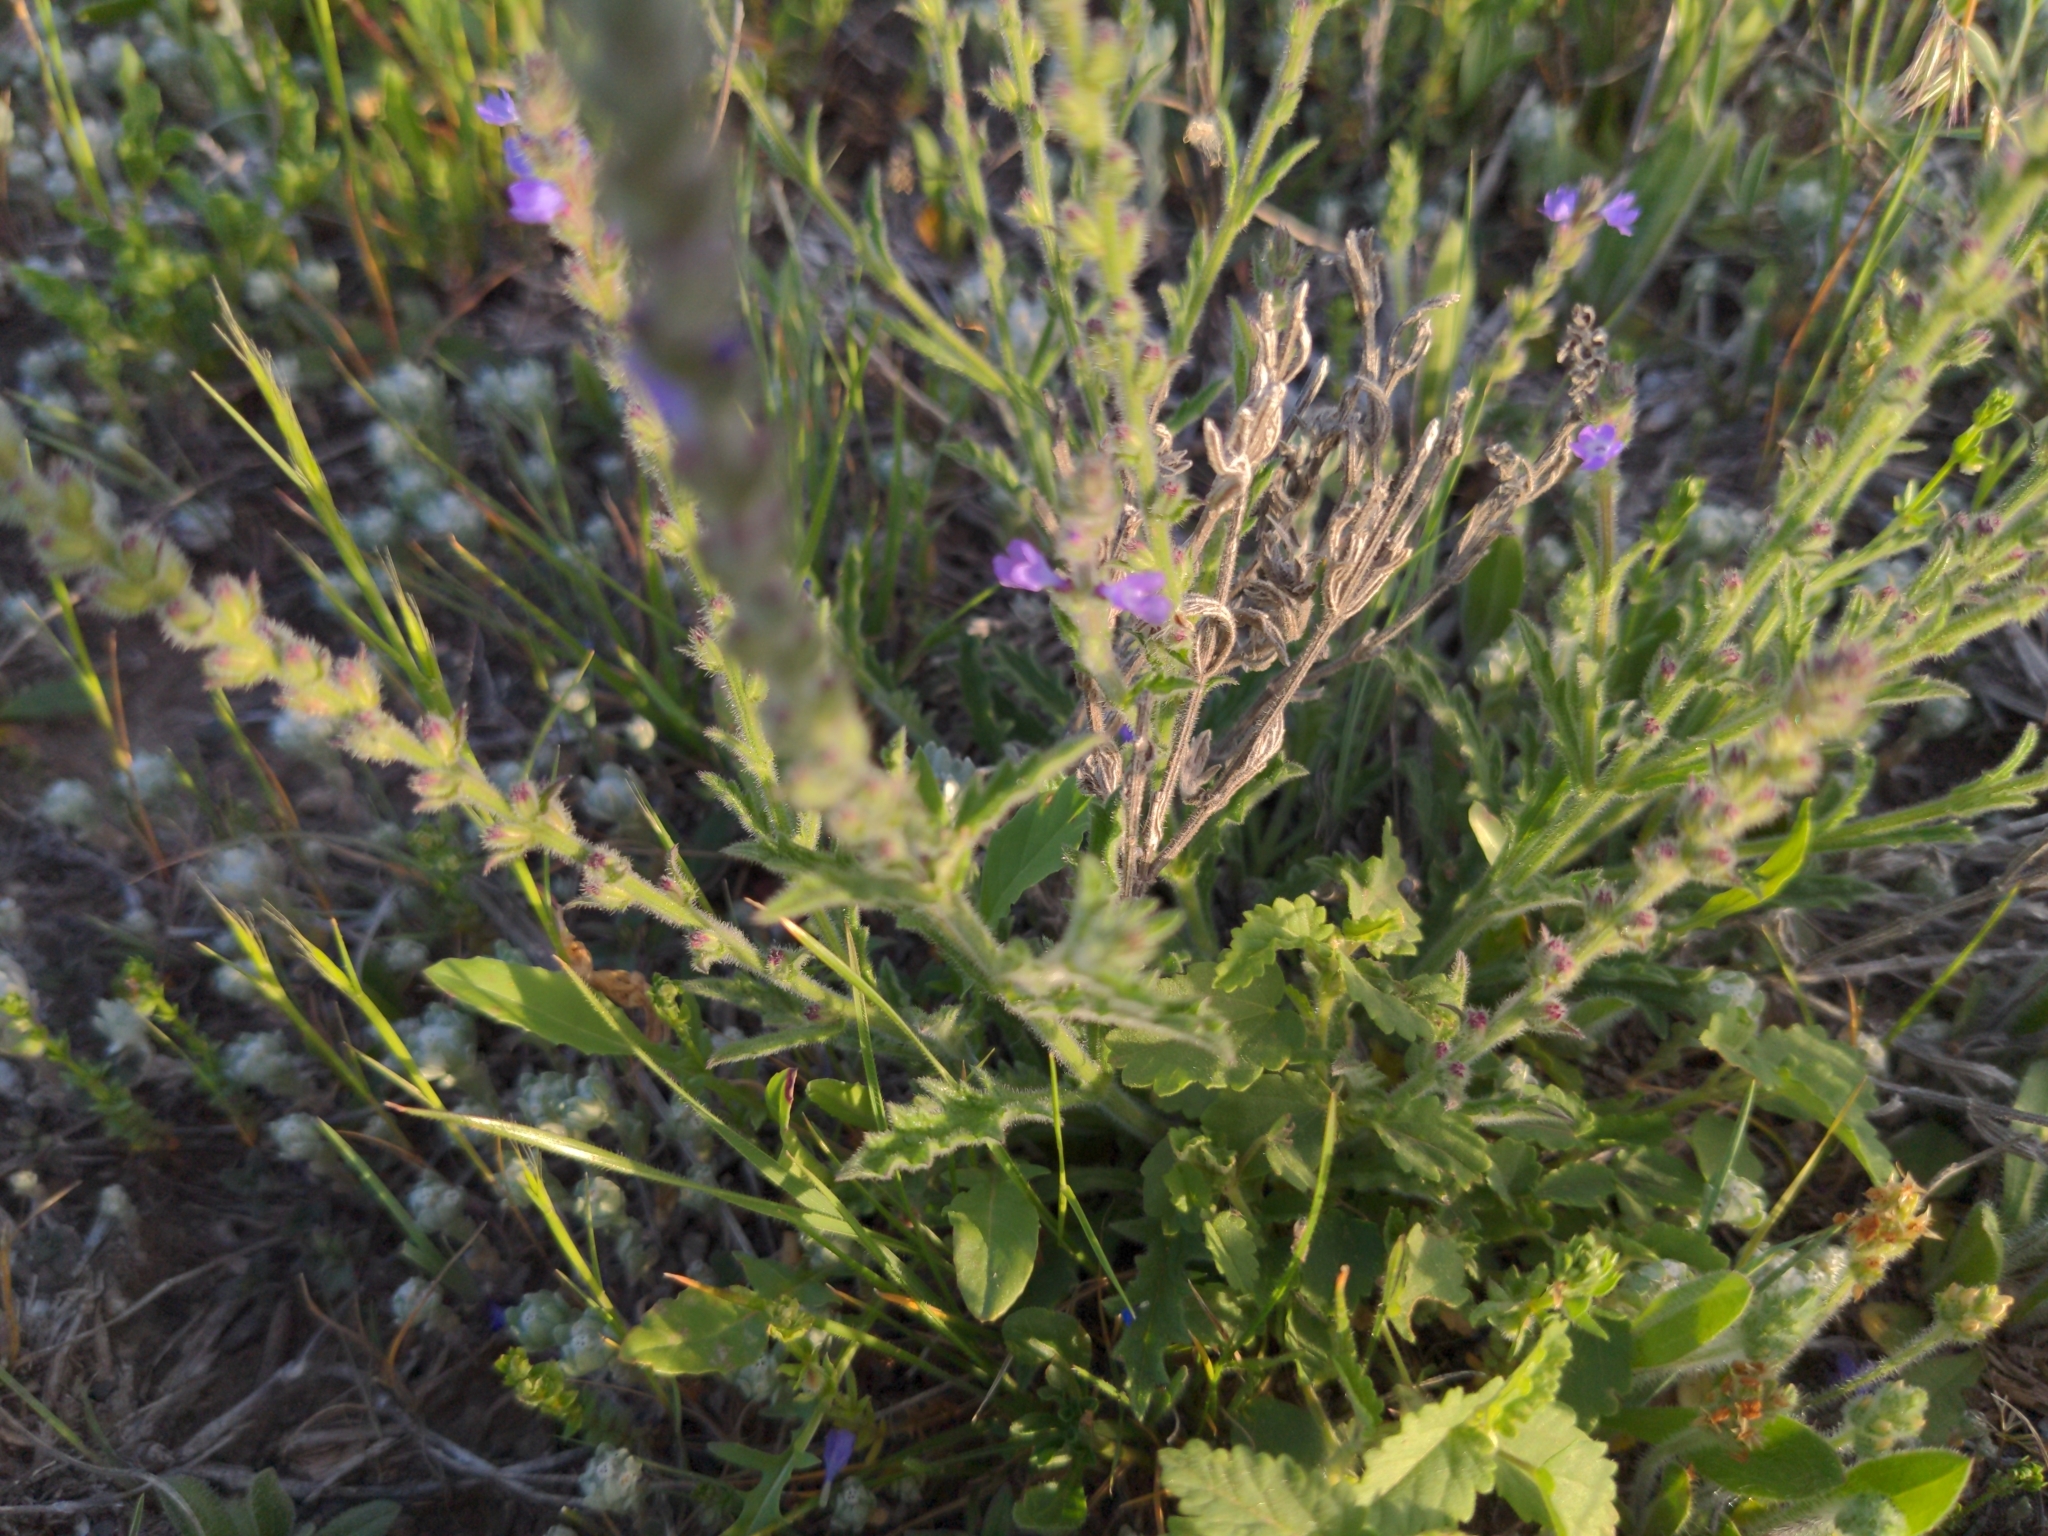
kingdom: Plantae
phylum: Tracheophyta
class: Magnoliopsida
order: Lamiales
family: Verbenaceae
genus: Verbena
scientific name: Verbena canescens
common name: Gray vervain
